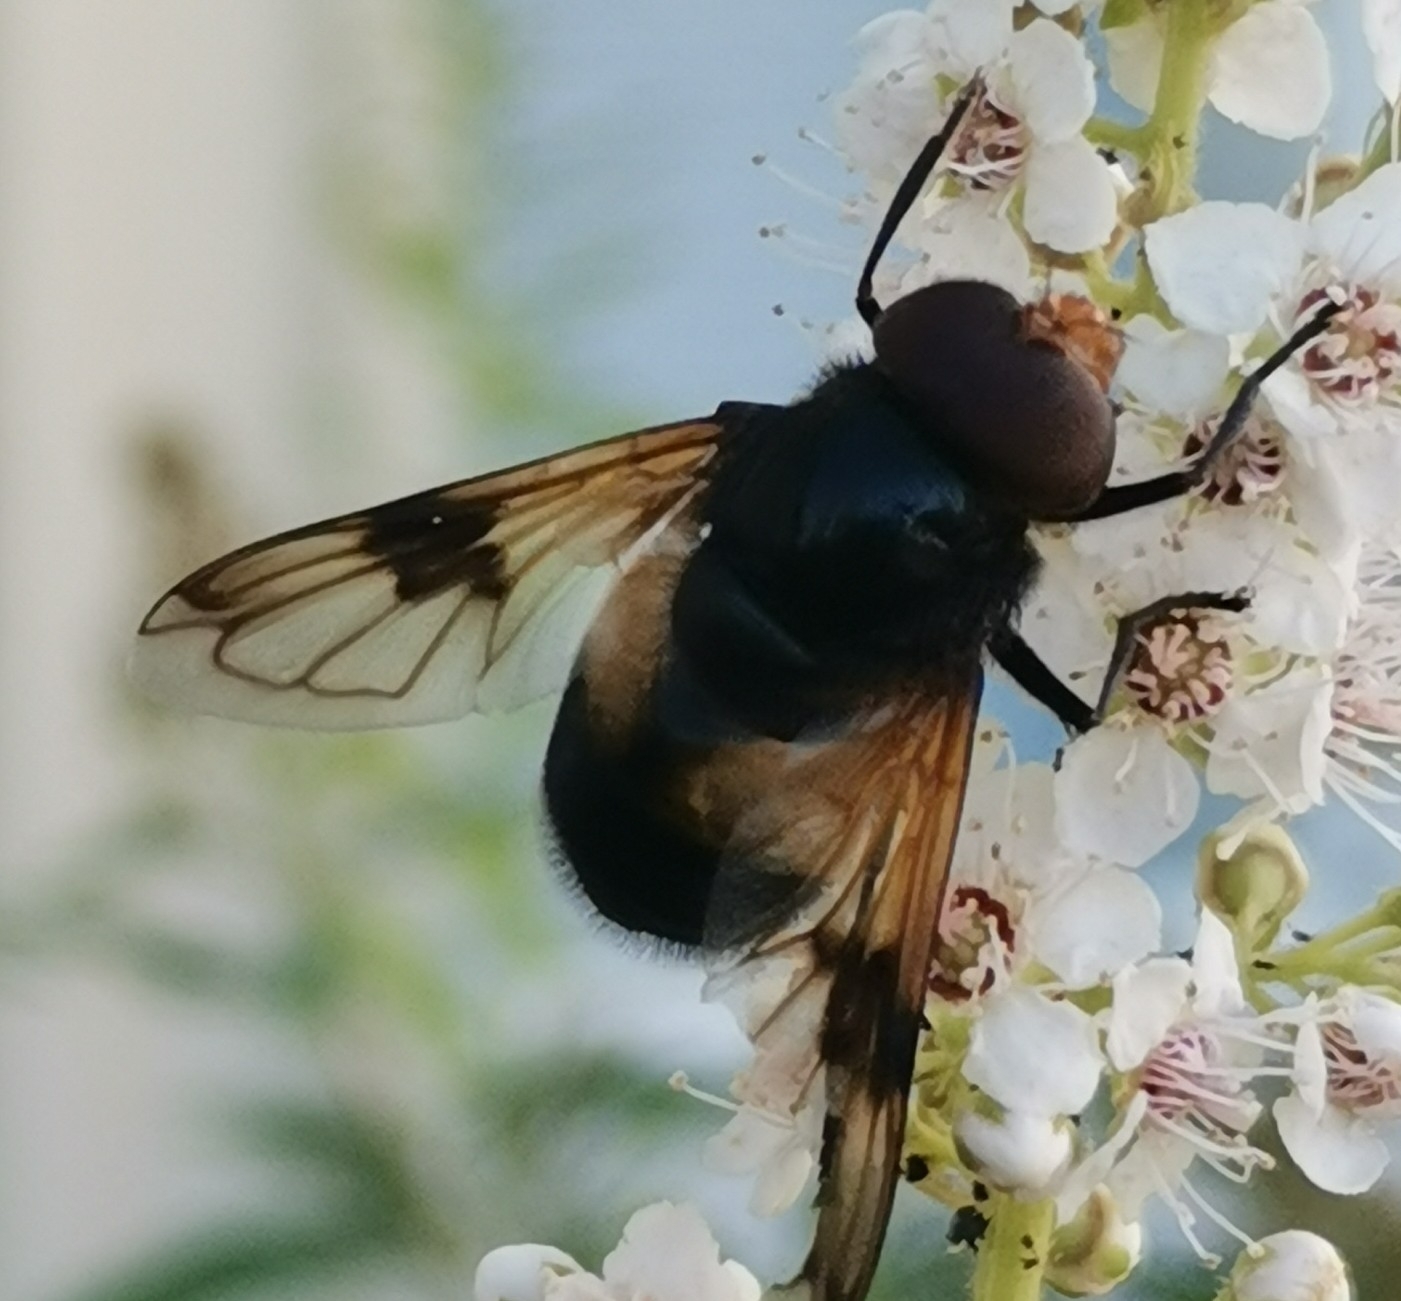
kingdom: Animalia
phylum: Arthropoda
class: Insecta
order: Diptera
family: Syrphidae
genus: Volucella
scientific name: Volucella pellucens
